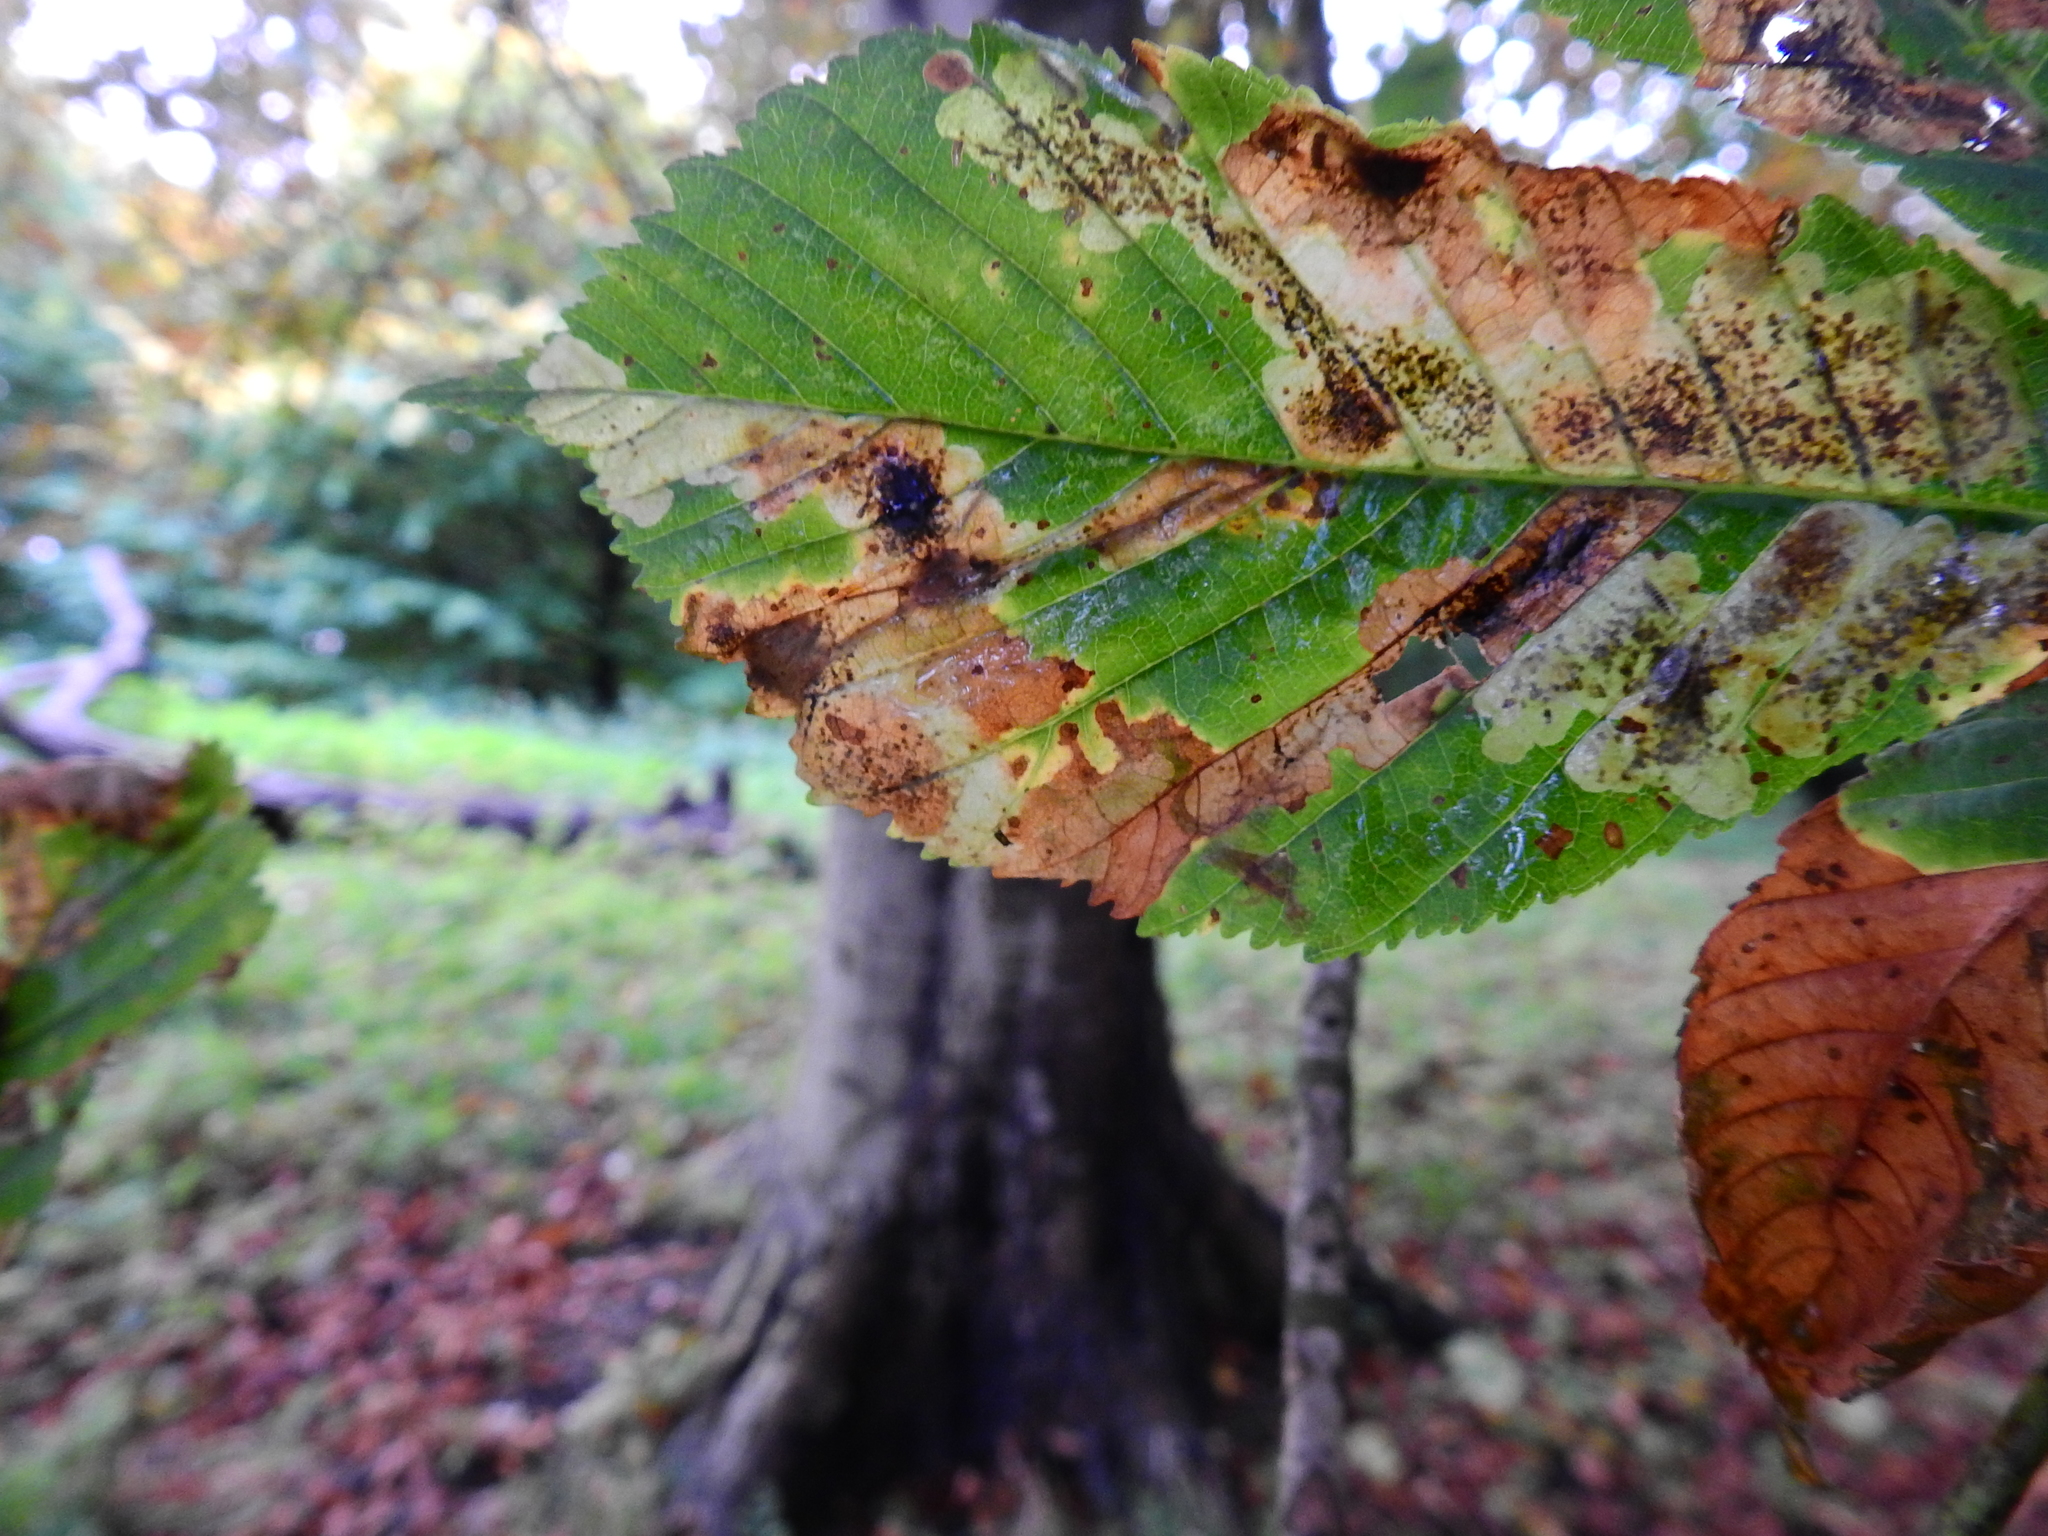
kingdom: Animalia
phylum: Arthropoda
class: Insecta
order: Lepidoptera
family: Gracillariidae
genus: Cameraria
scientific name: Cameraria ohridella
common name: Horse-chestnut leaf-miner
